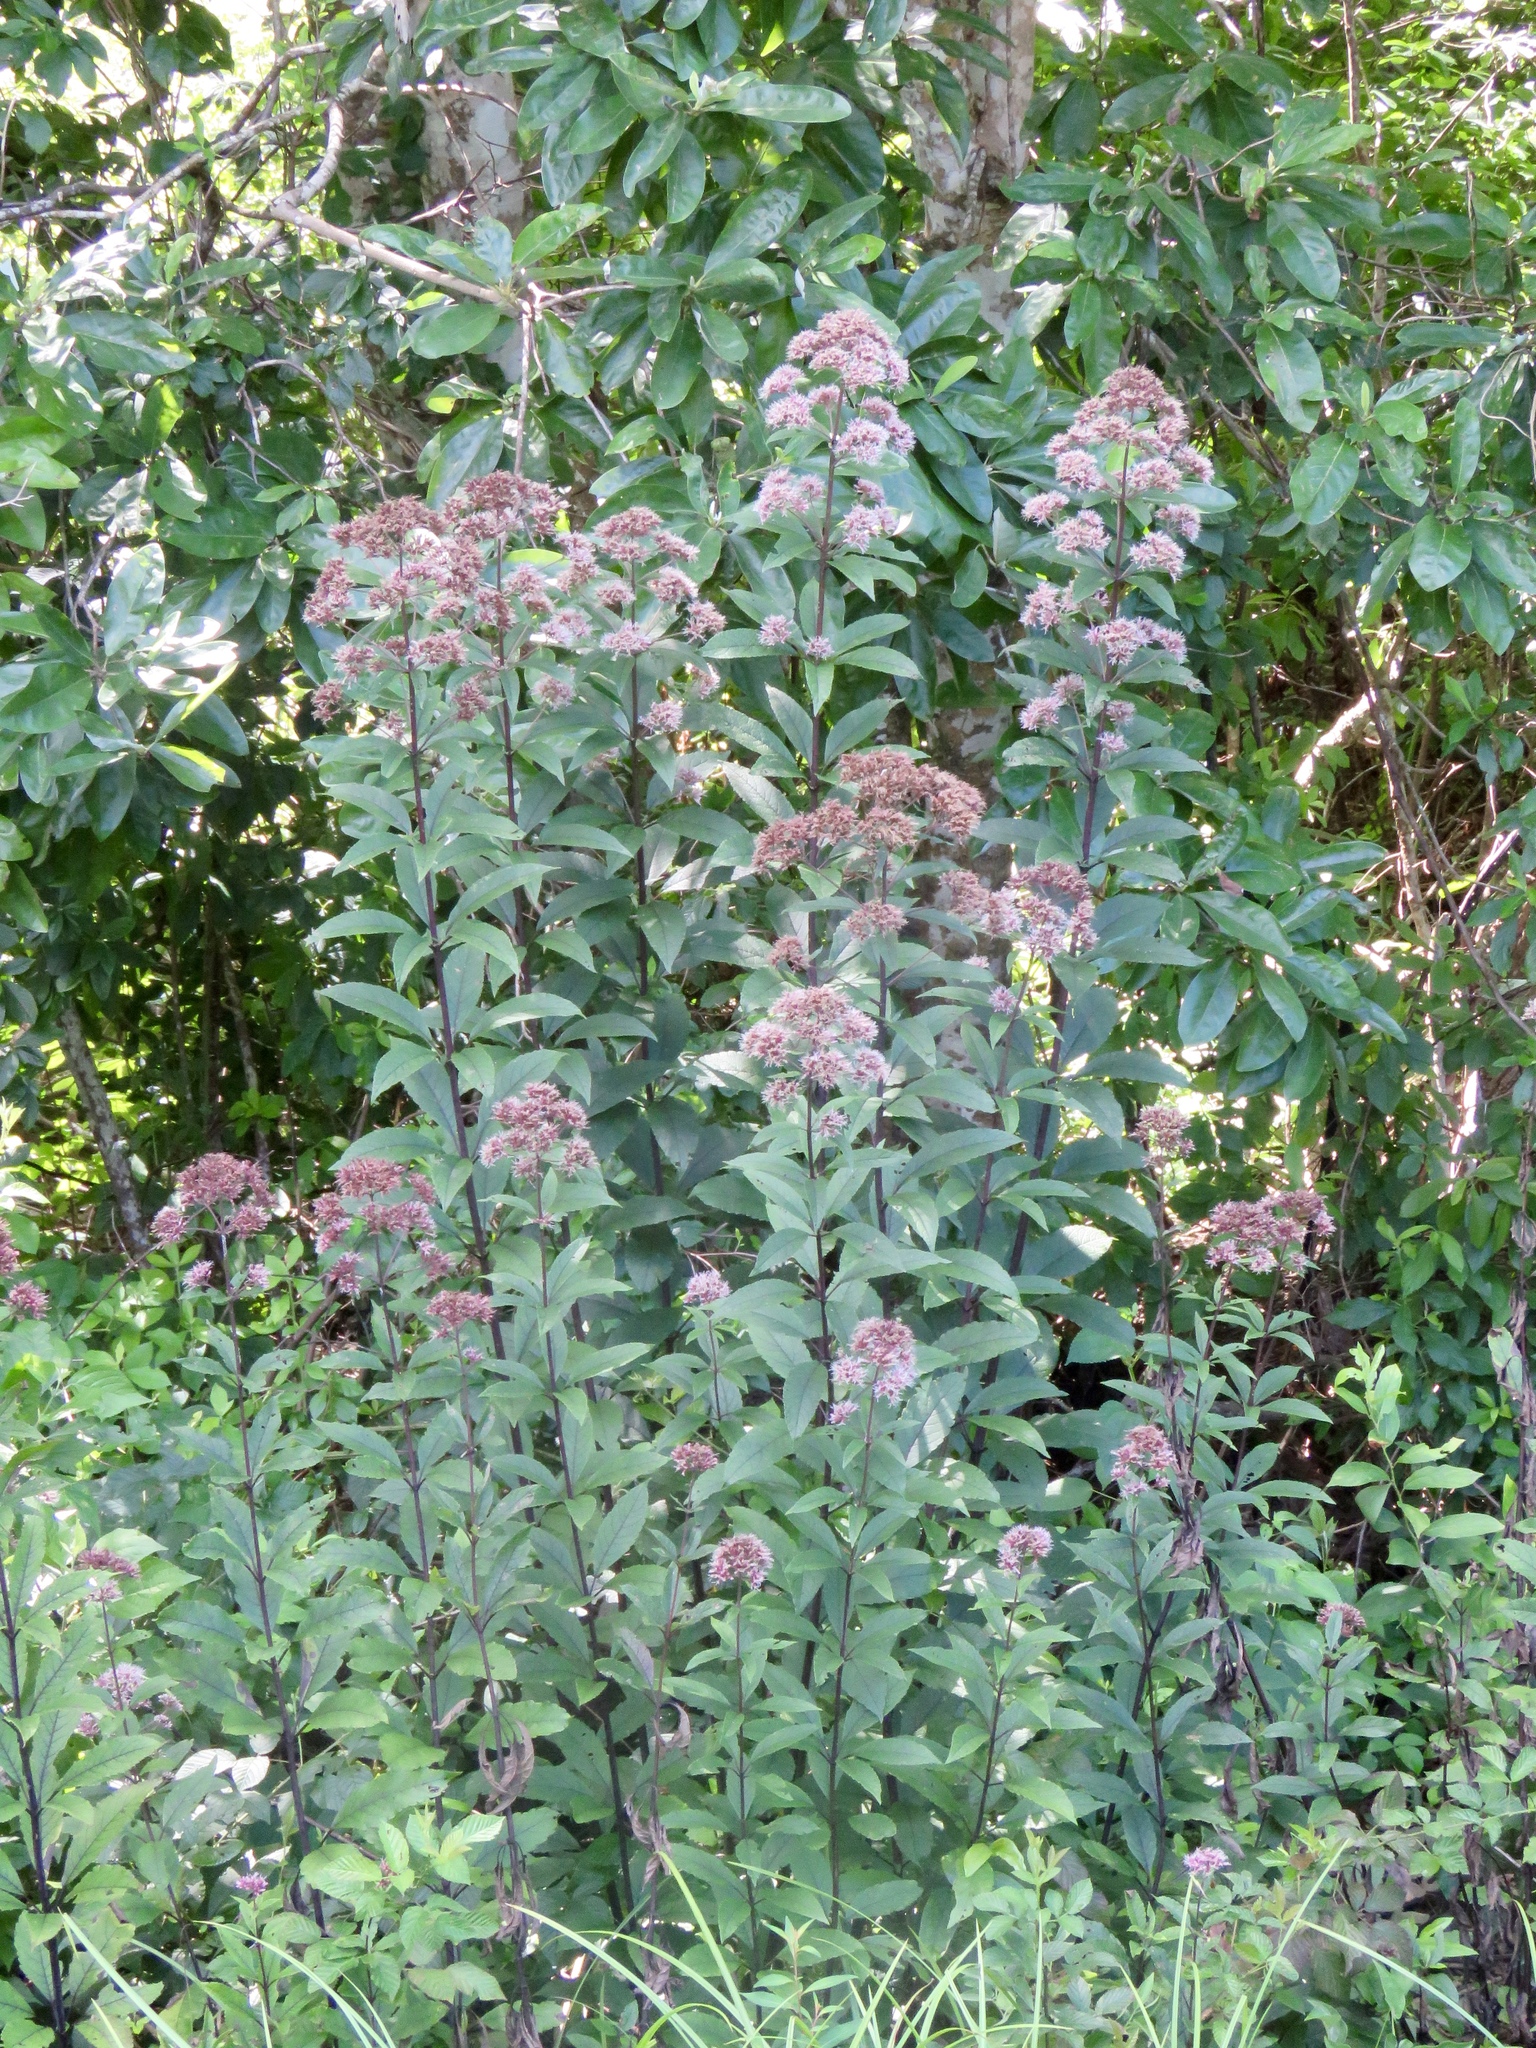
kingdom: Plantae
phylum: Tracheophyta
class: Magnoliopsida
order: Asterales
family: Asteraceae
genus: Eutrochium
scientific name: Eutrochium fistulosum
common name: Trumpetweed
